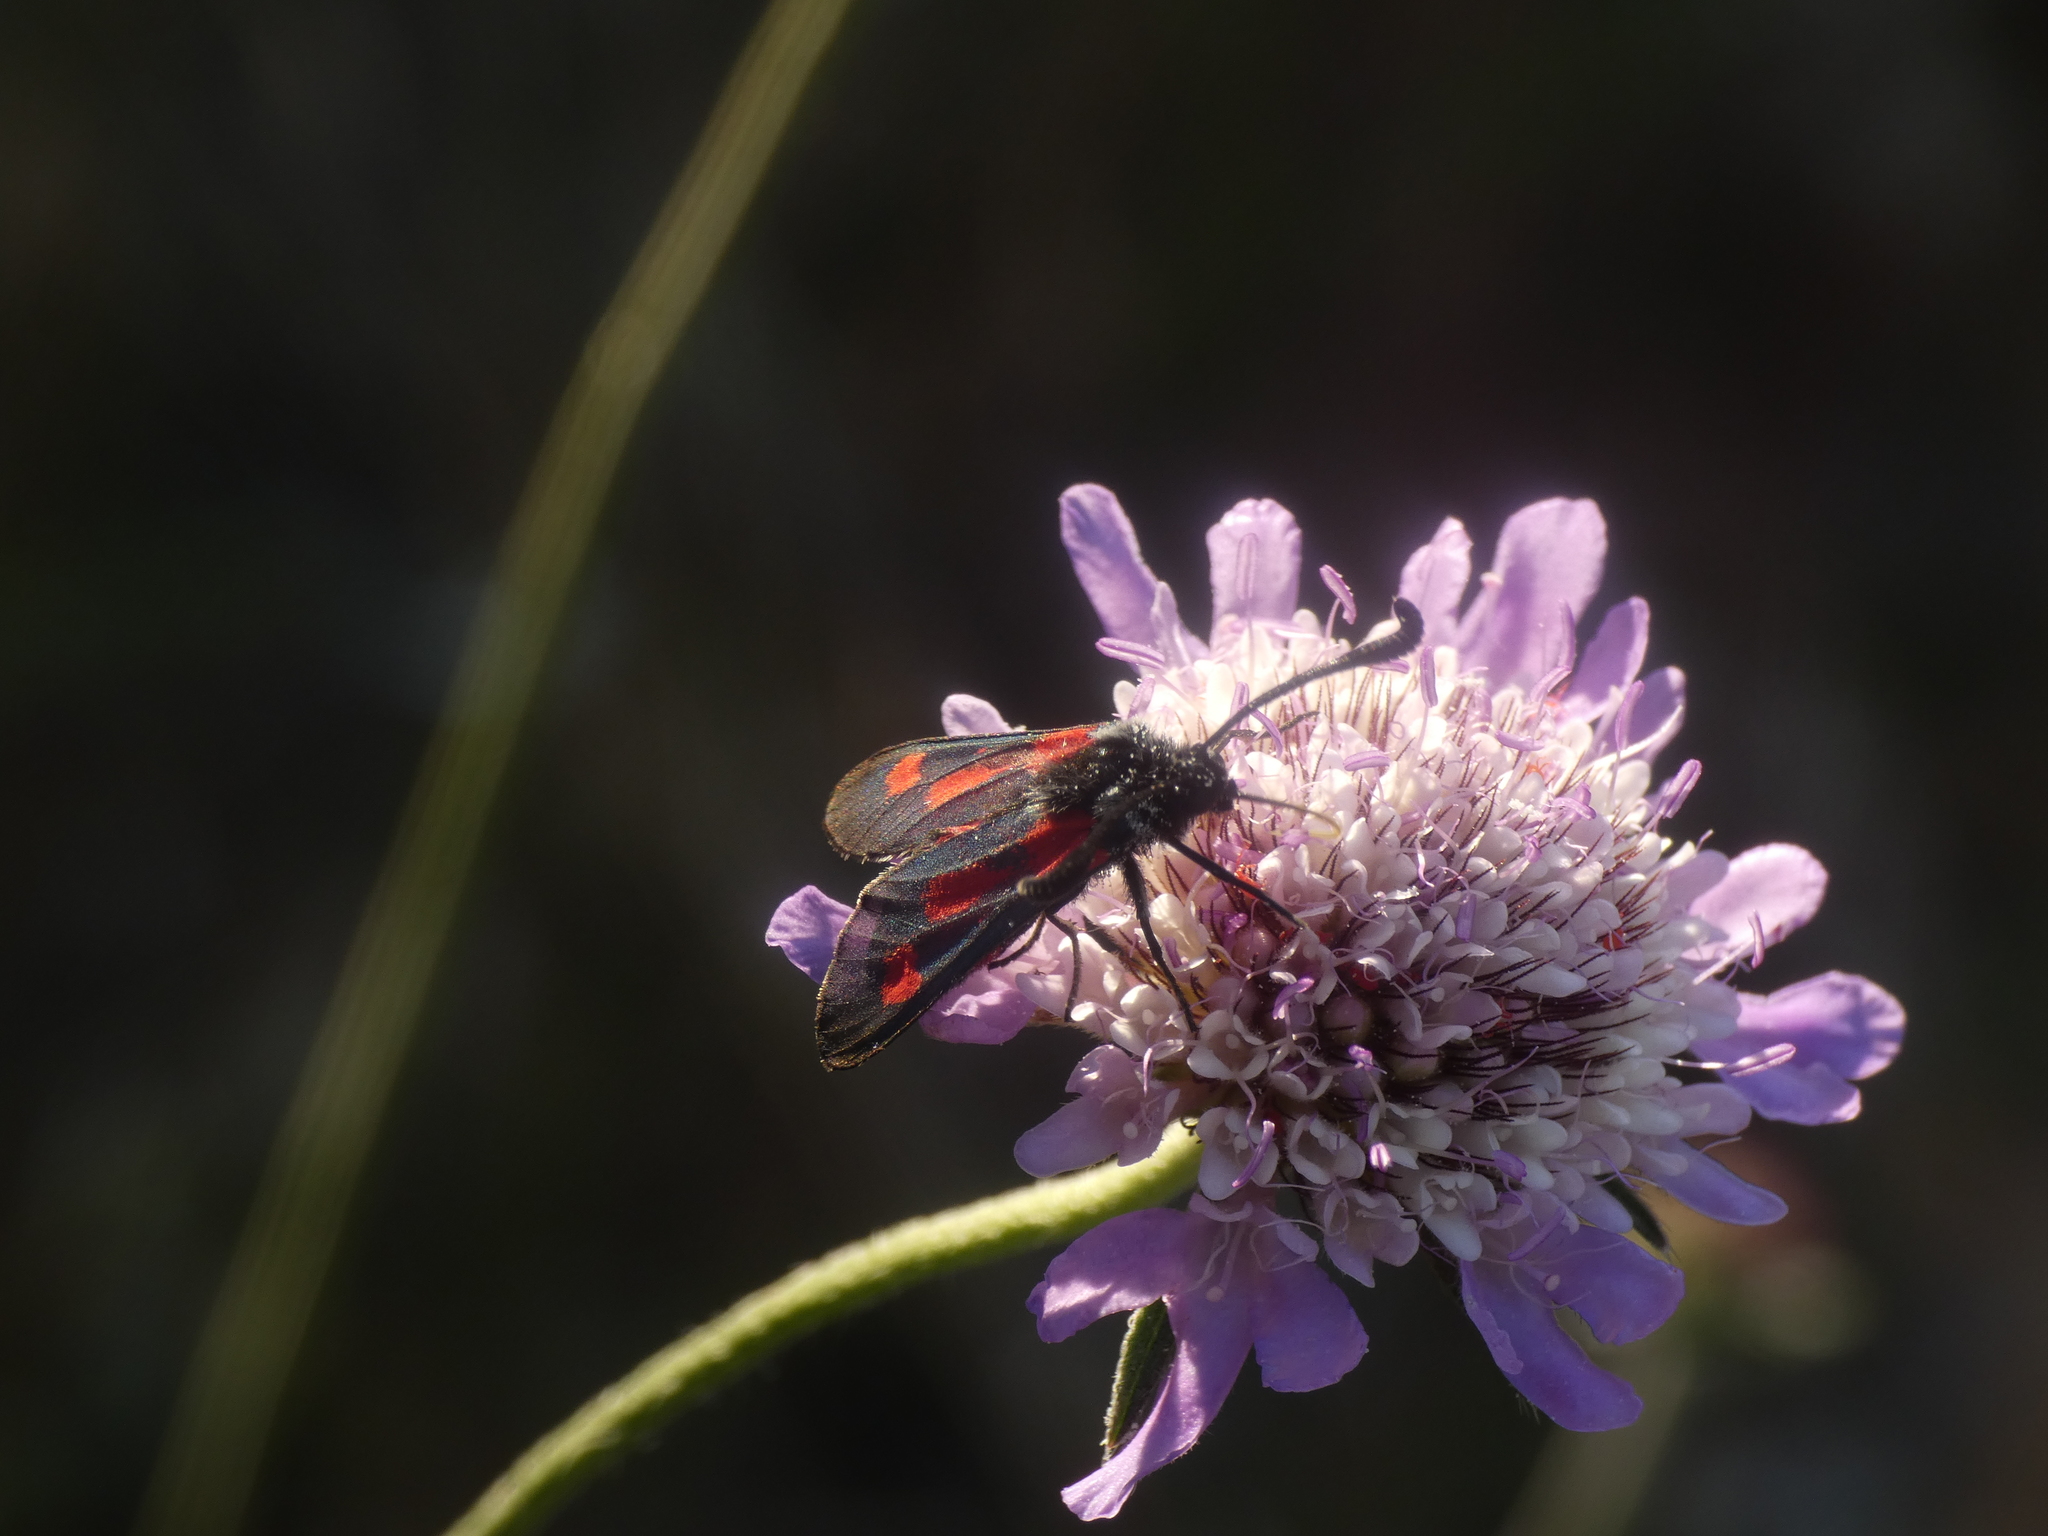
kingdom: Animalia
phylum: Arthropoda
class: Insecta
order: Lepidoptera
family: Zygaenidae
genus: Zygaena
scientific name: Zygaena sarpedon
